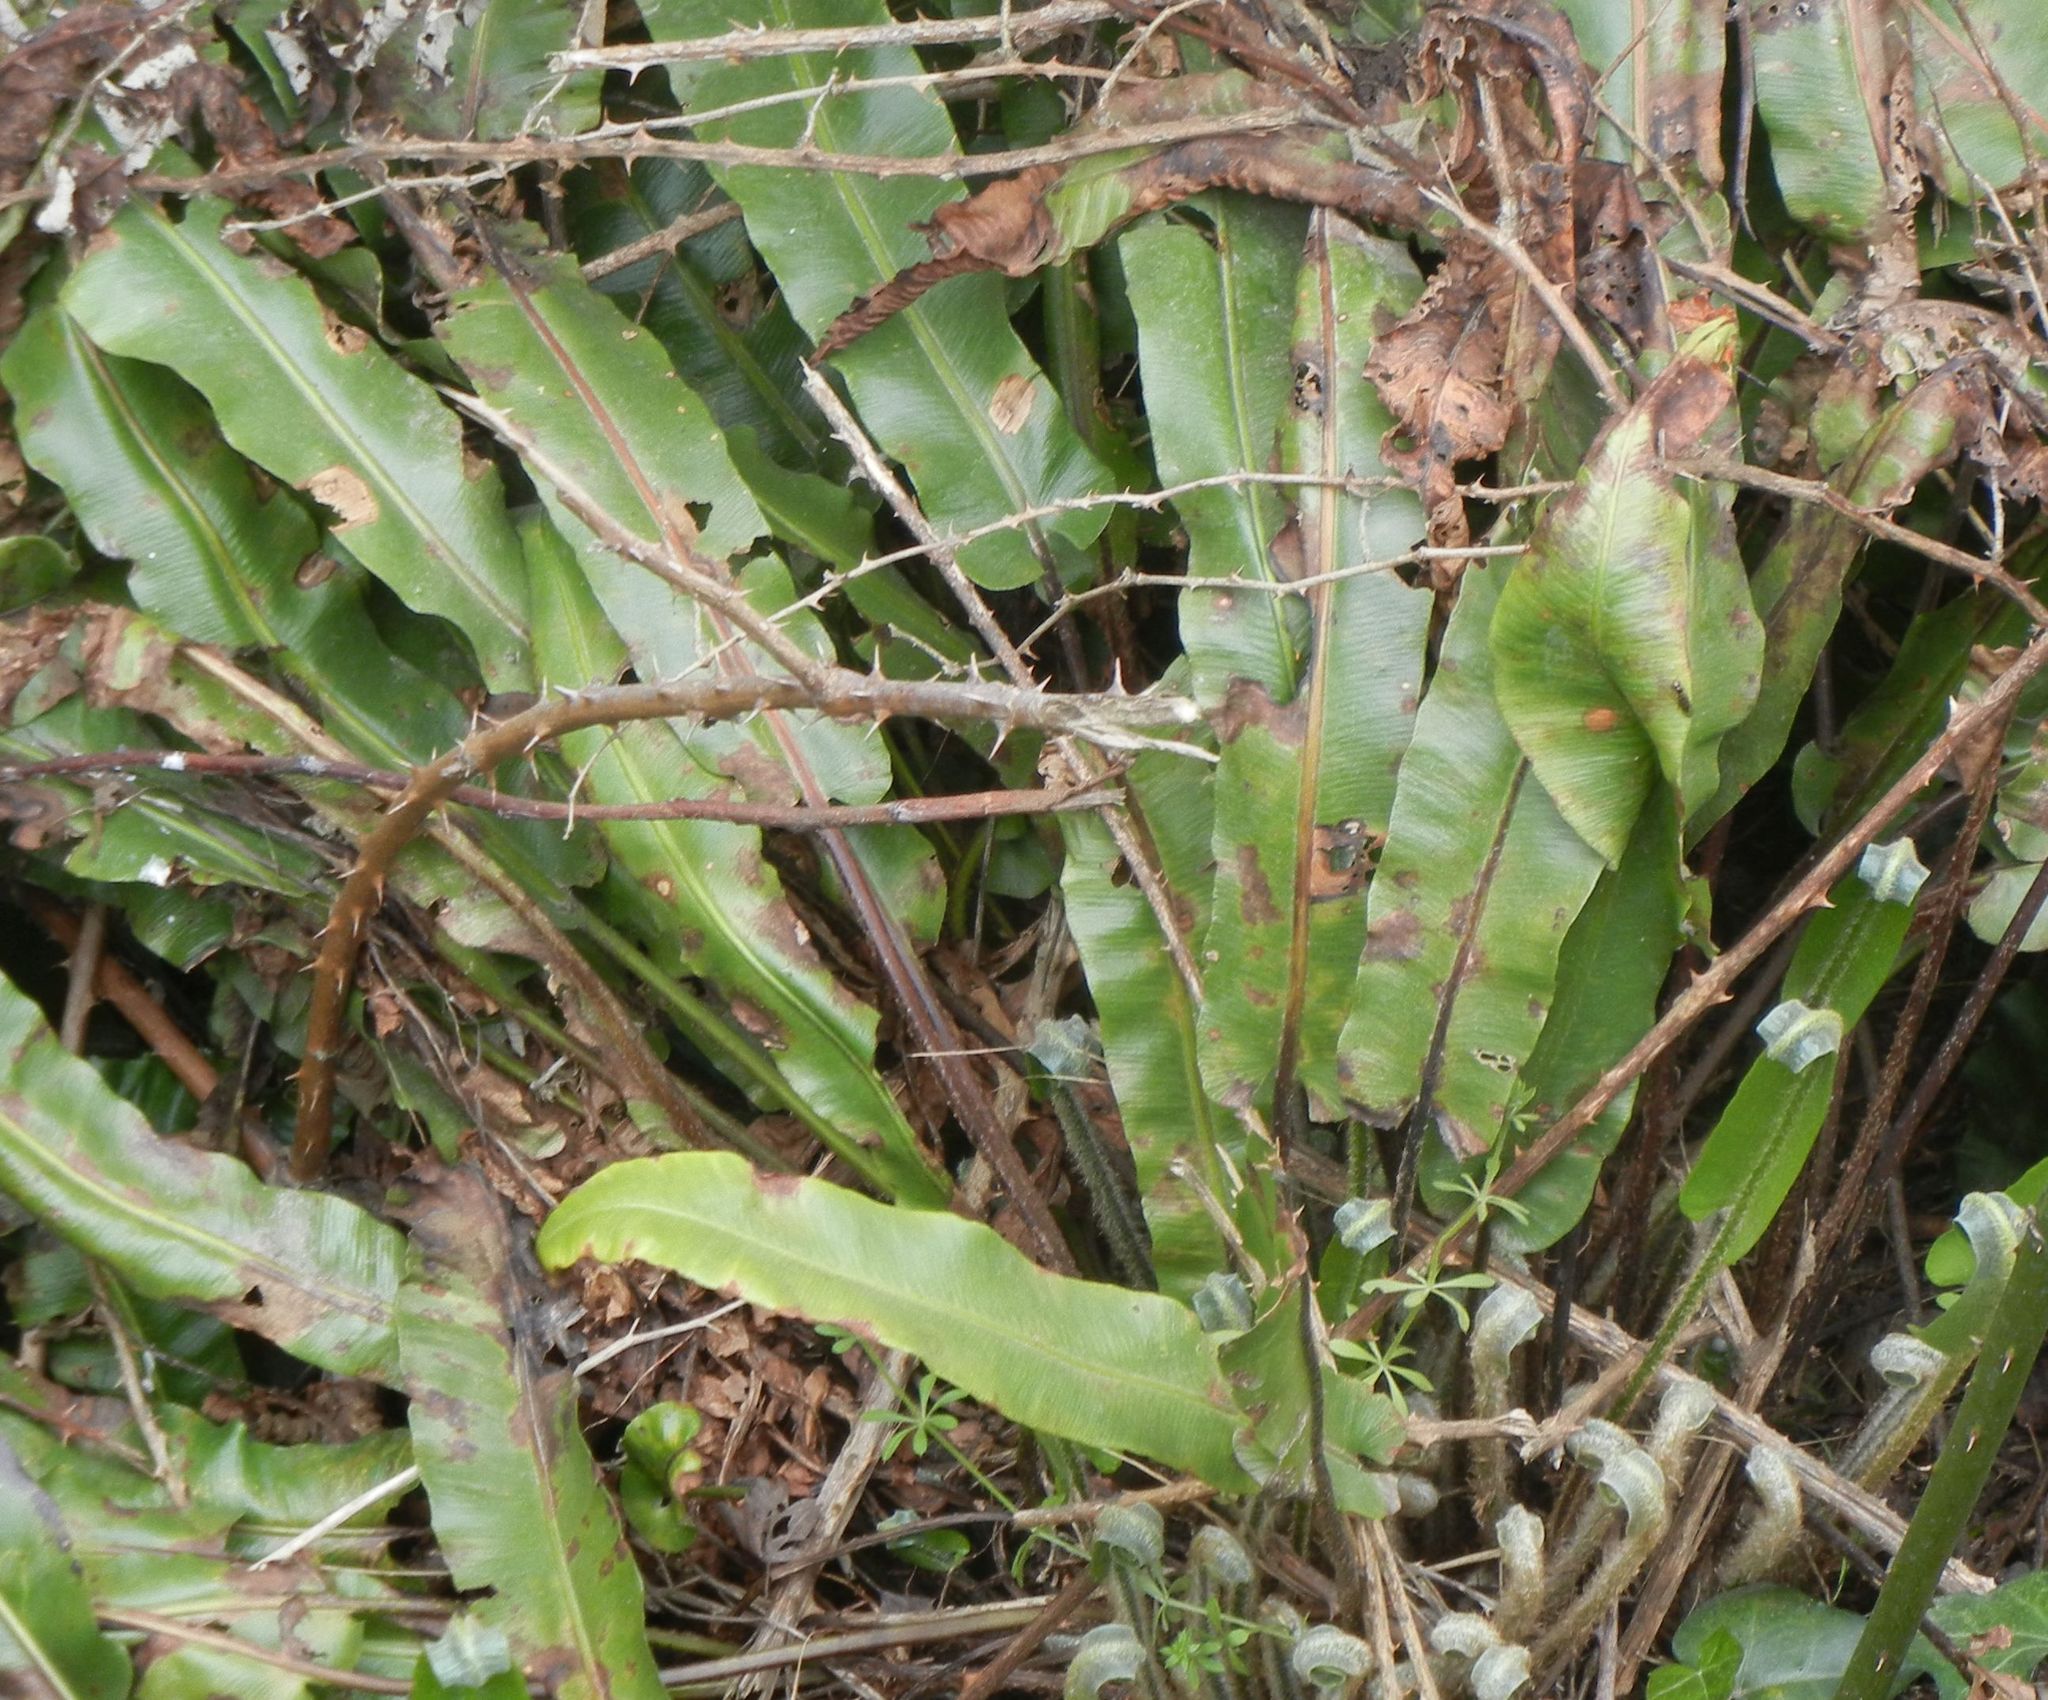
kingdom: Plantae
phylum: Tracheophyta
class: Polypodiopsida
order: Polypodiales
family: Aspleniaceae
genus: Asplenium
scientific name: Asplenium scolopendrium
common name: Hart's-tongue fern
